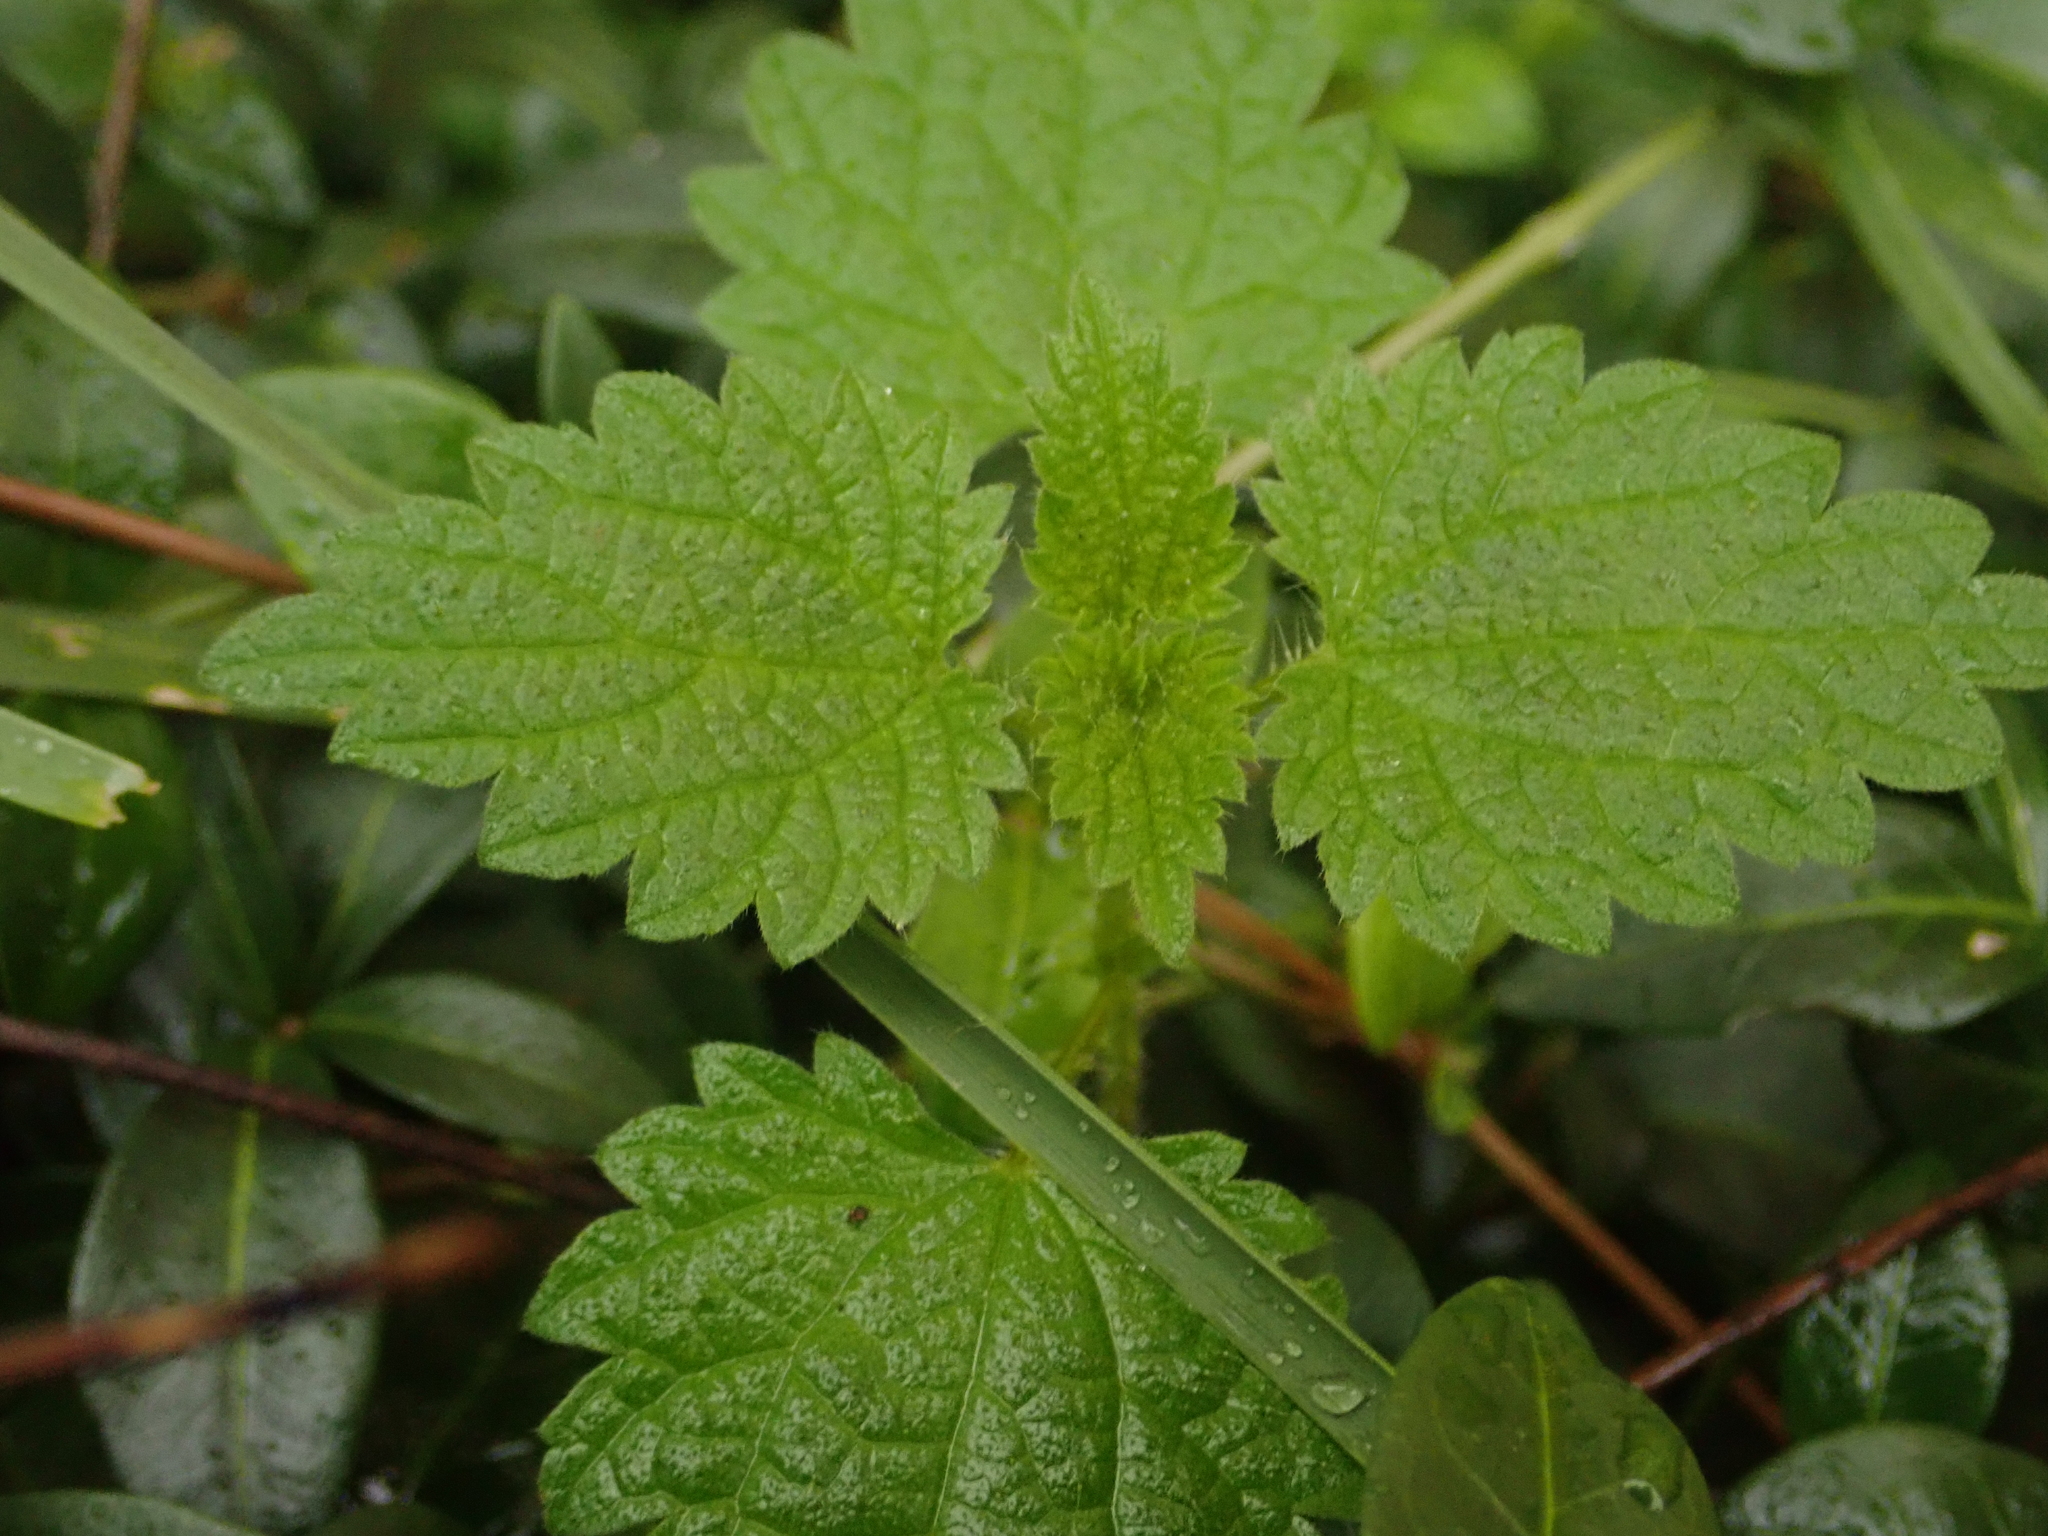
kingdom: Plantae
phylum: Tracheophyta
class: Magnoliopsida
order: Rosales
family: Urticaceae
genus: Urtica
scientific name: Urtica dioica
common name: Common nettle
